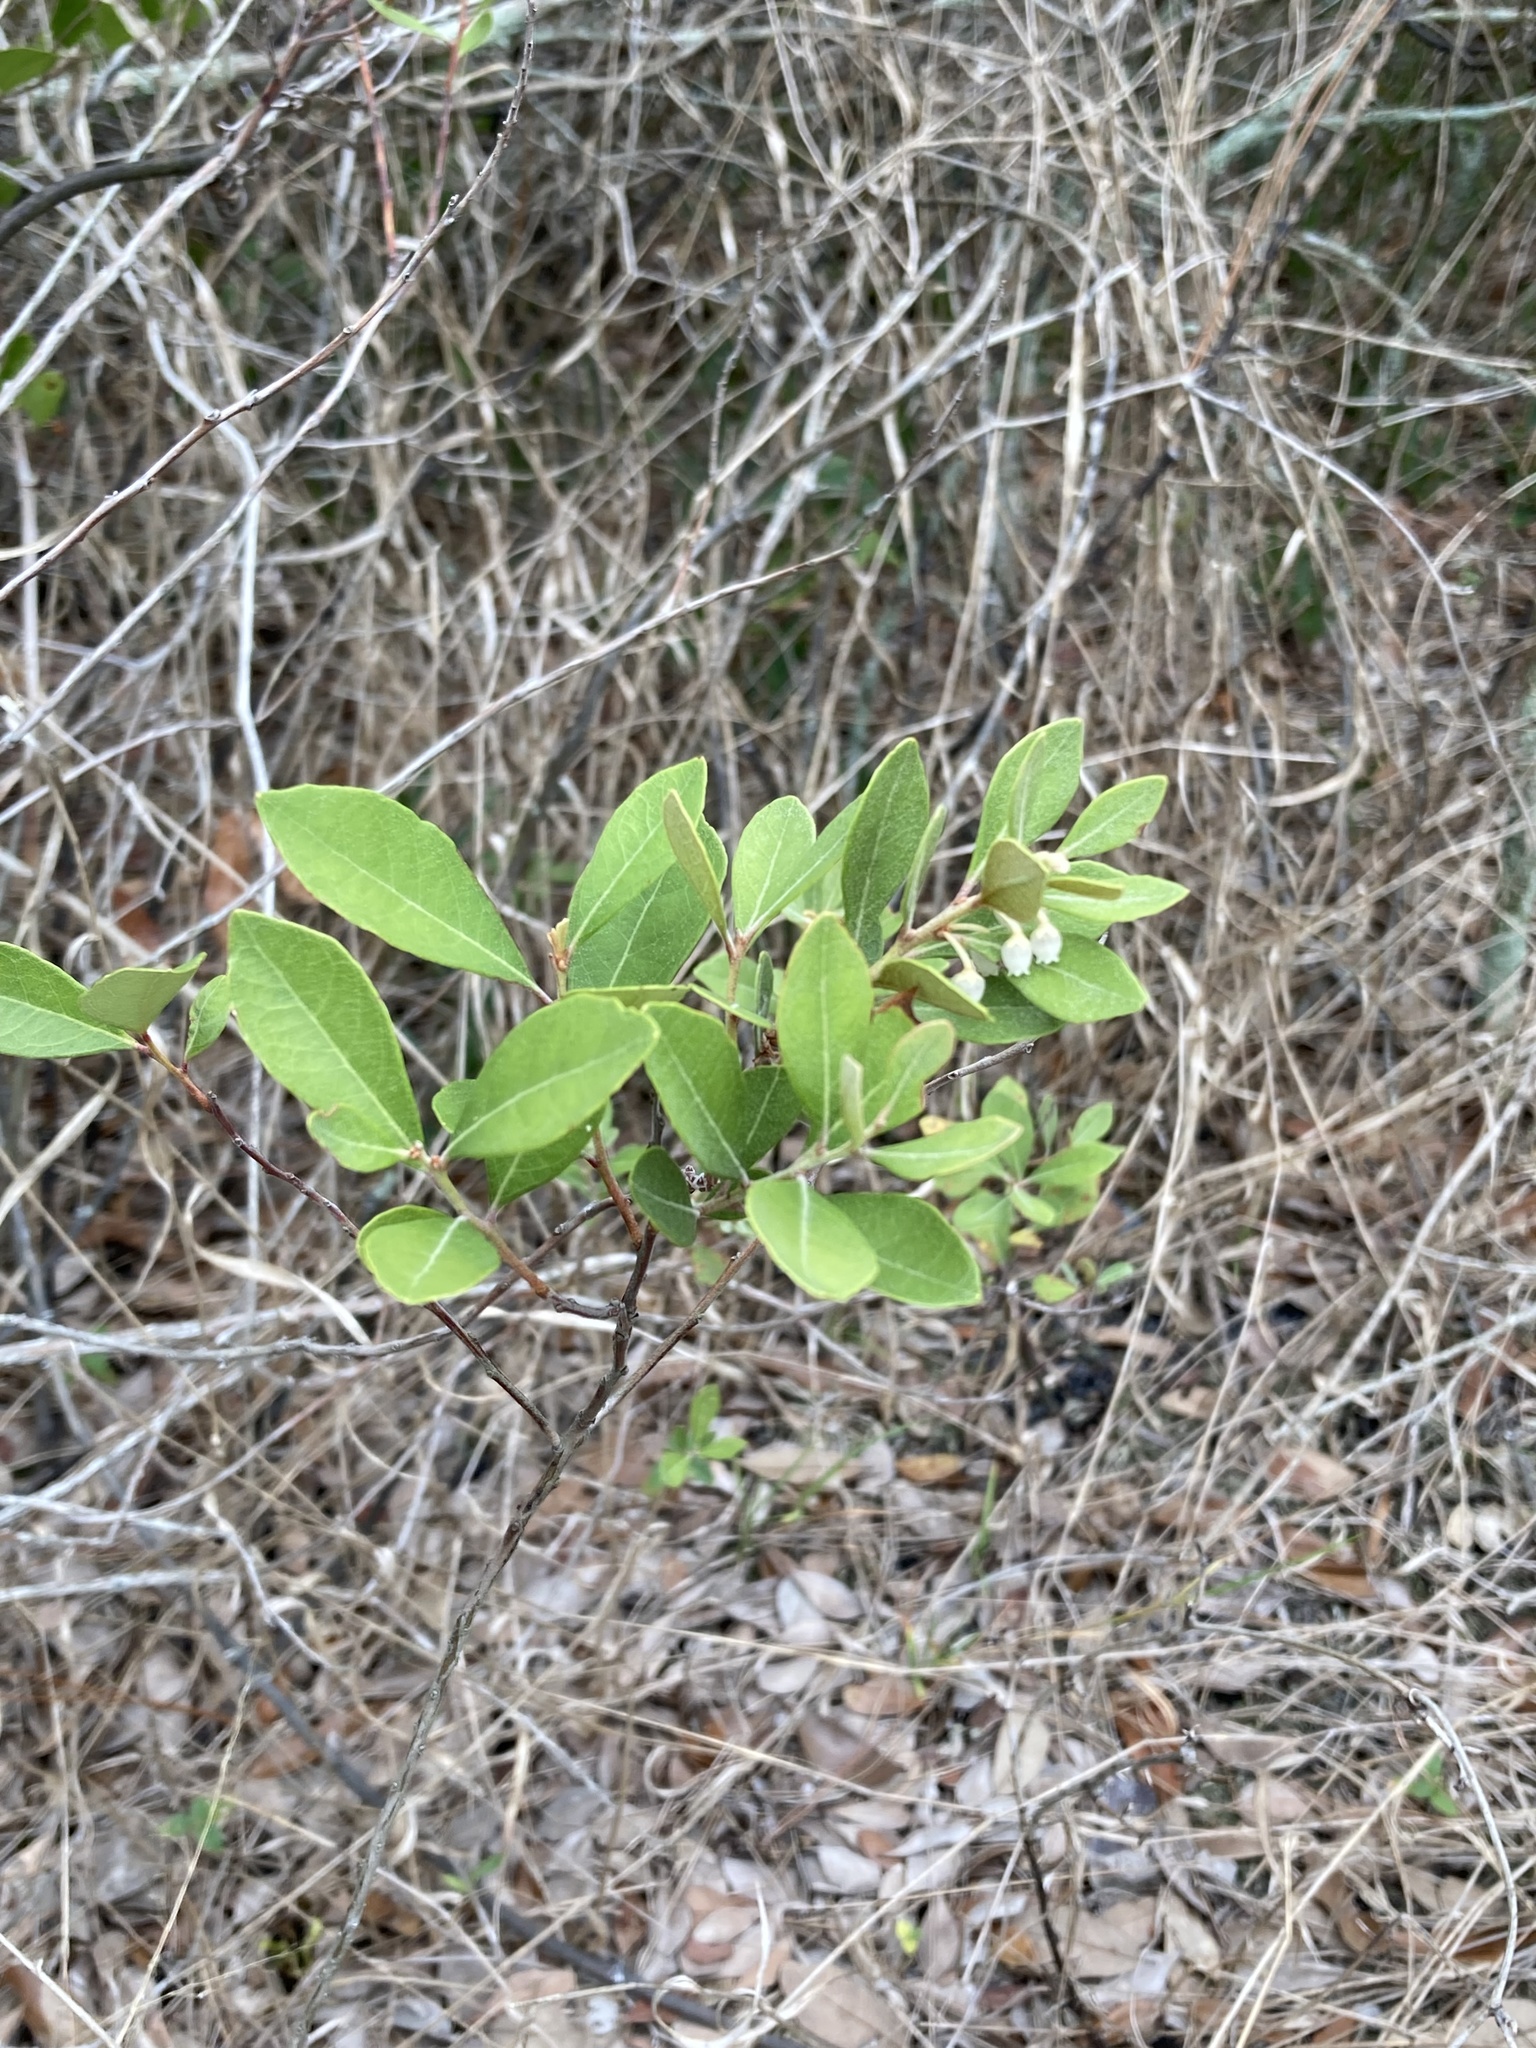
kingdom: Plantae
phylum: Tracheophyta
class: Magnoliopsida
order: Ericales
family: Ericaceae
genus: Lyonia
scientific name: Lyonia fruticosa
